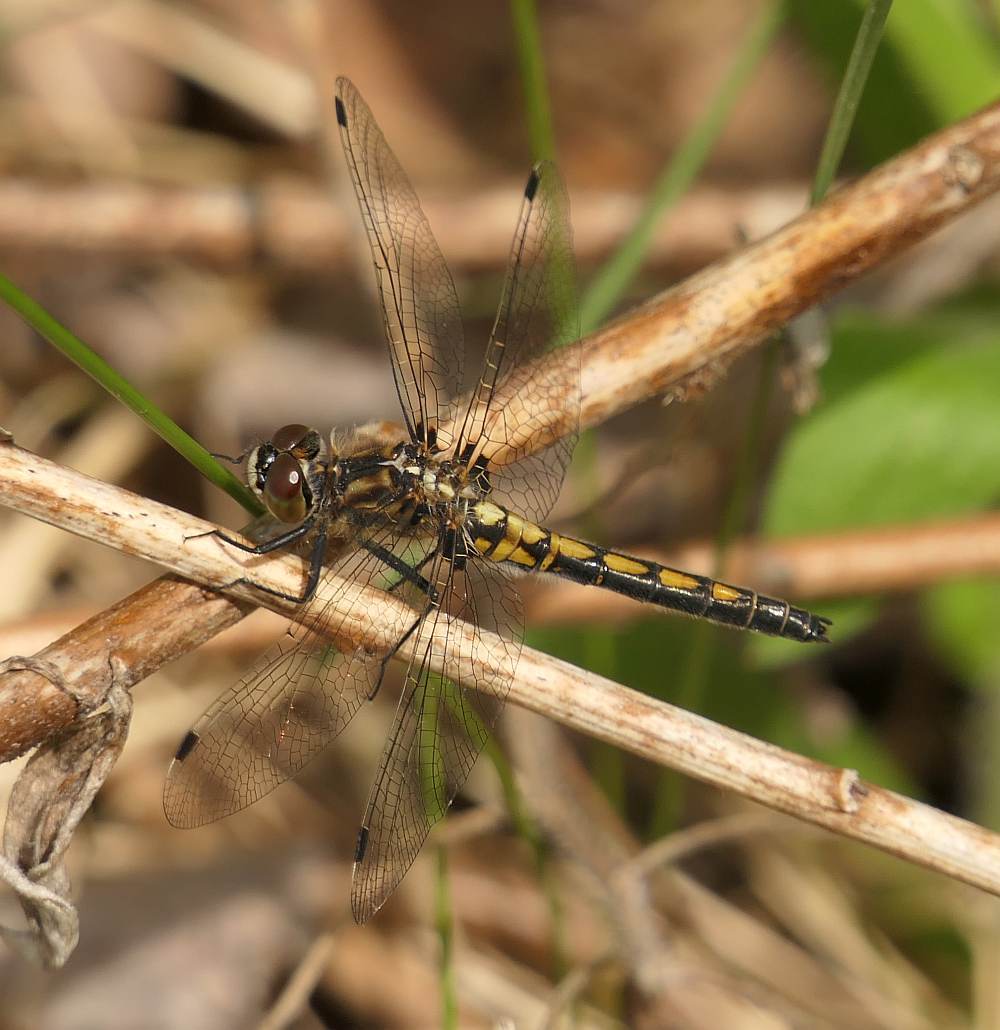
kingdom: Animalia
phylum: Arthropoda
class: Insecta
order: Odonata
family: Libellulidae
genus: Leucorrhinia
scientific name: Leucorrhinia intacta
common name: Dot-tailed whiteface
